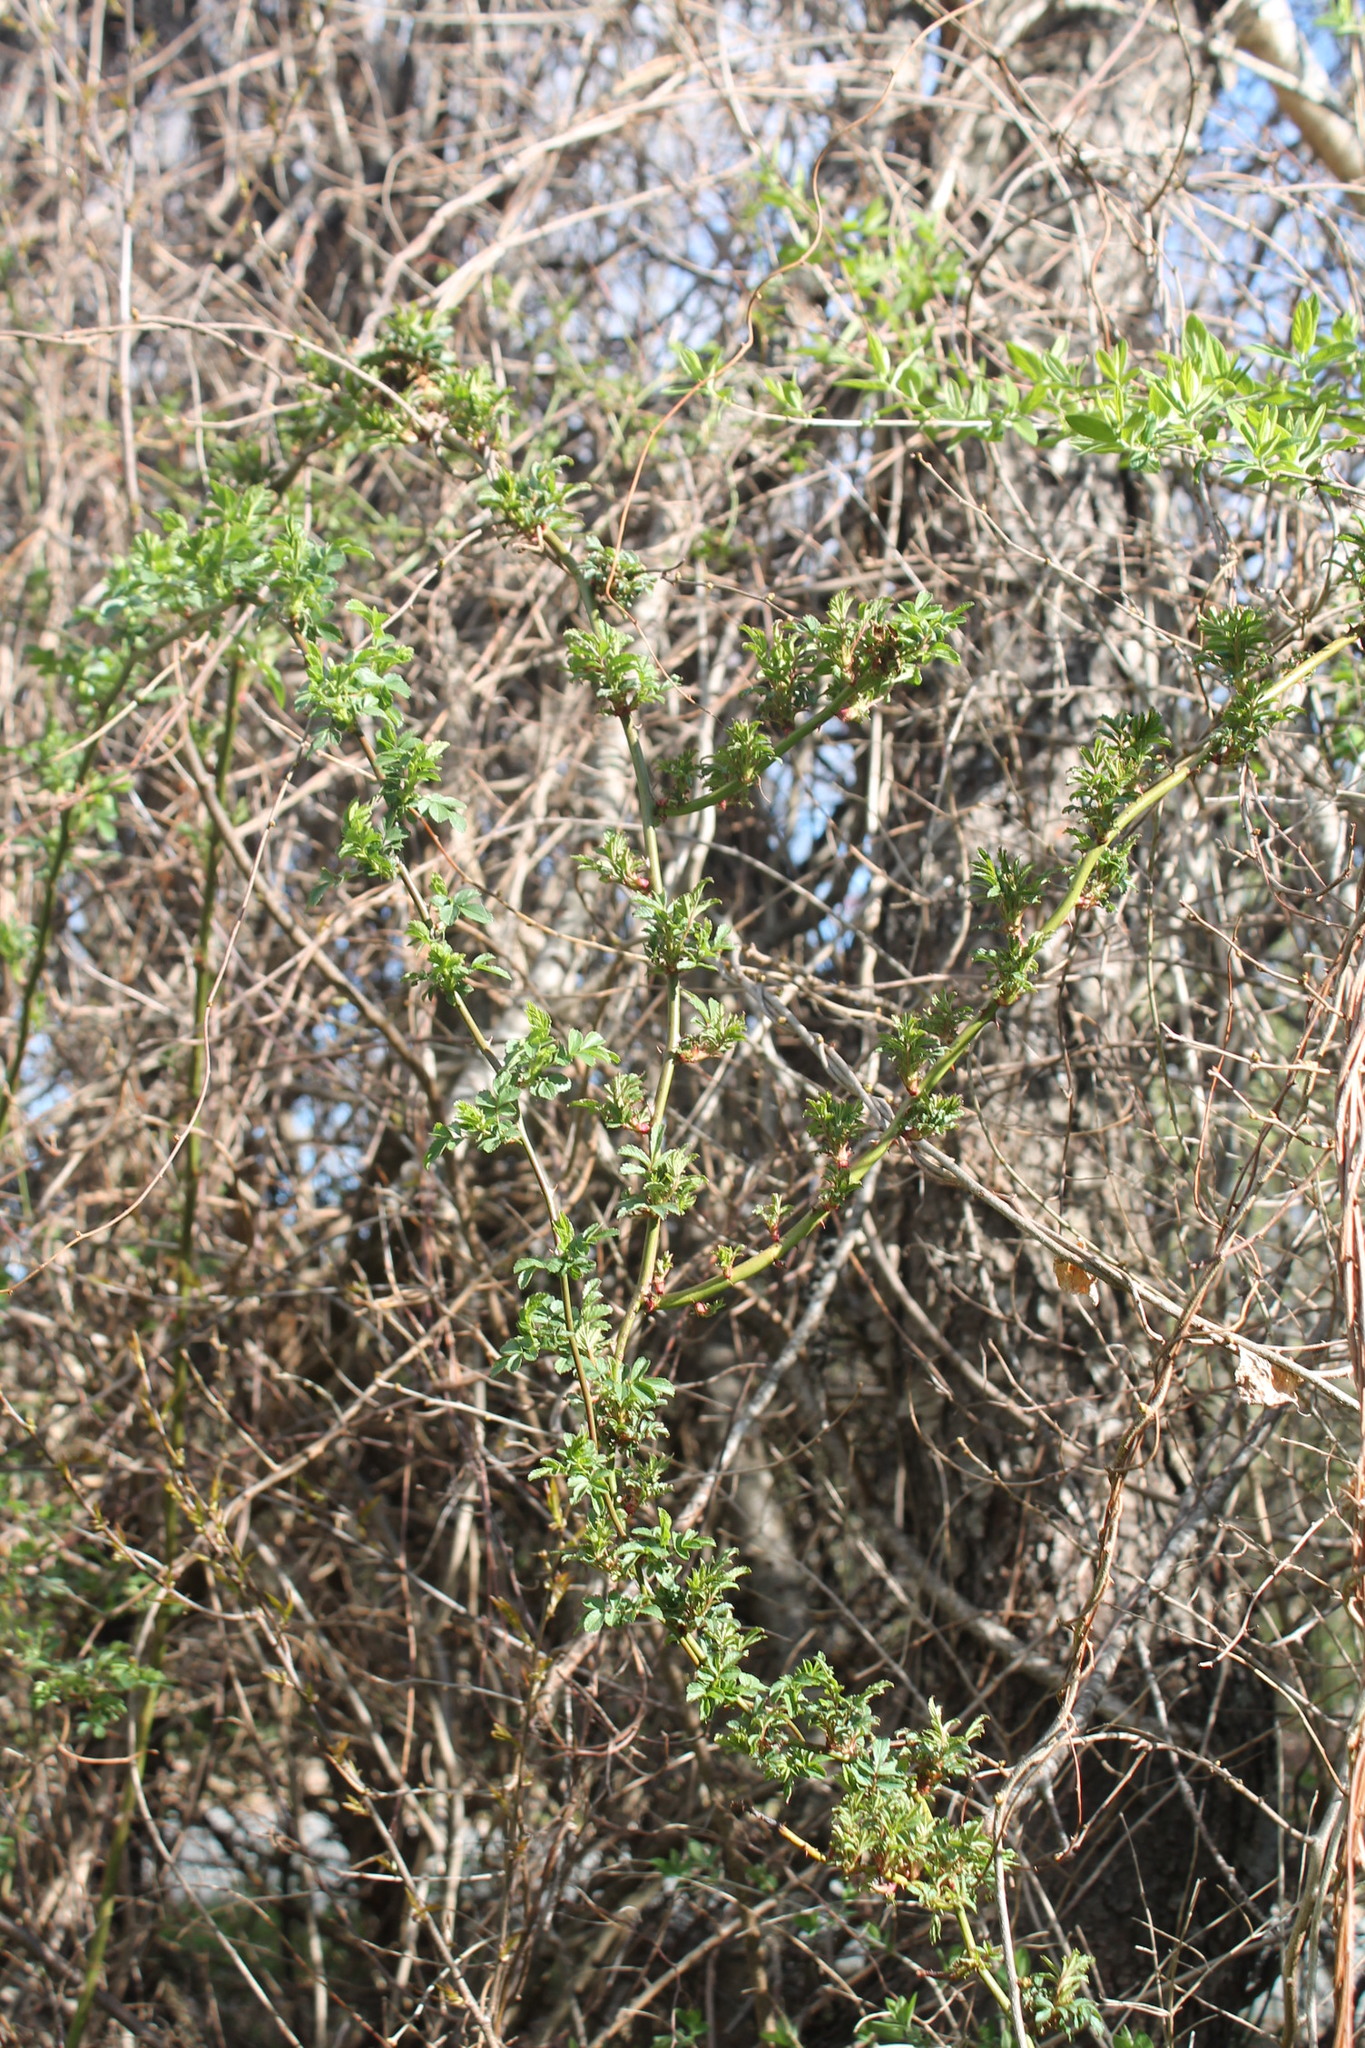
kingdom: Viruses
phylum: Negarnaviricota
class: Ellioviricetes
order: Bunyavirales
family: Fimoviridae
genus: Emaravirus
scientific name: Emaravirus rosae
